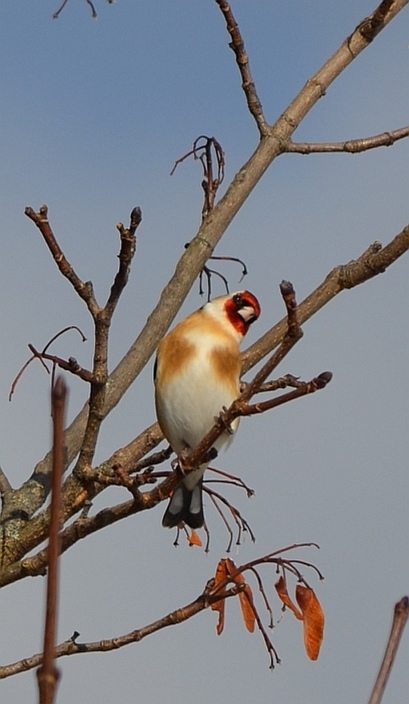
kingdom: Animalia
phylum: Chordata
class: Aves
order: Passeriformes
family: Fringillidae
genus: Carduelis
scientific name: Carduelis carduelis
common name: European goldfinch
